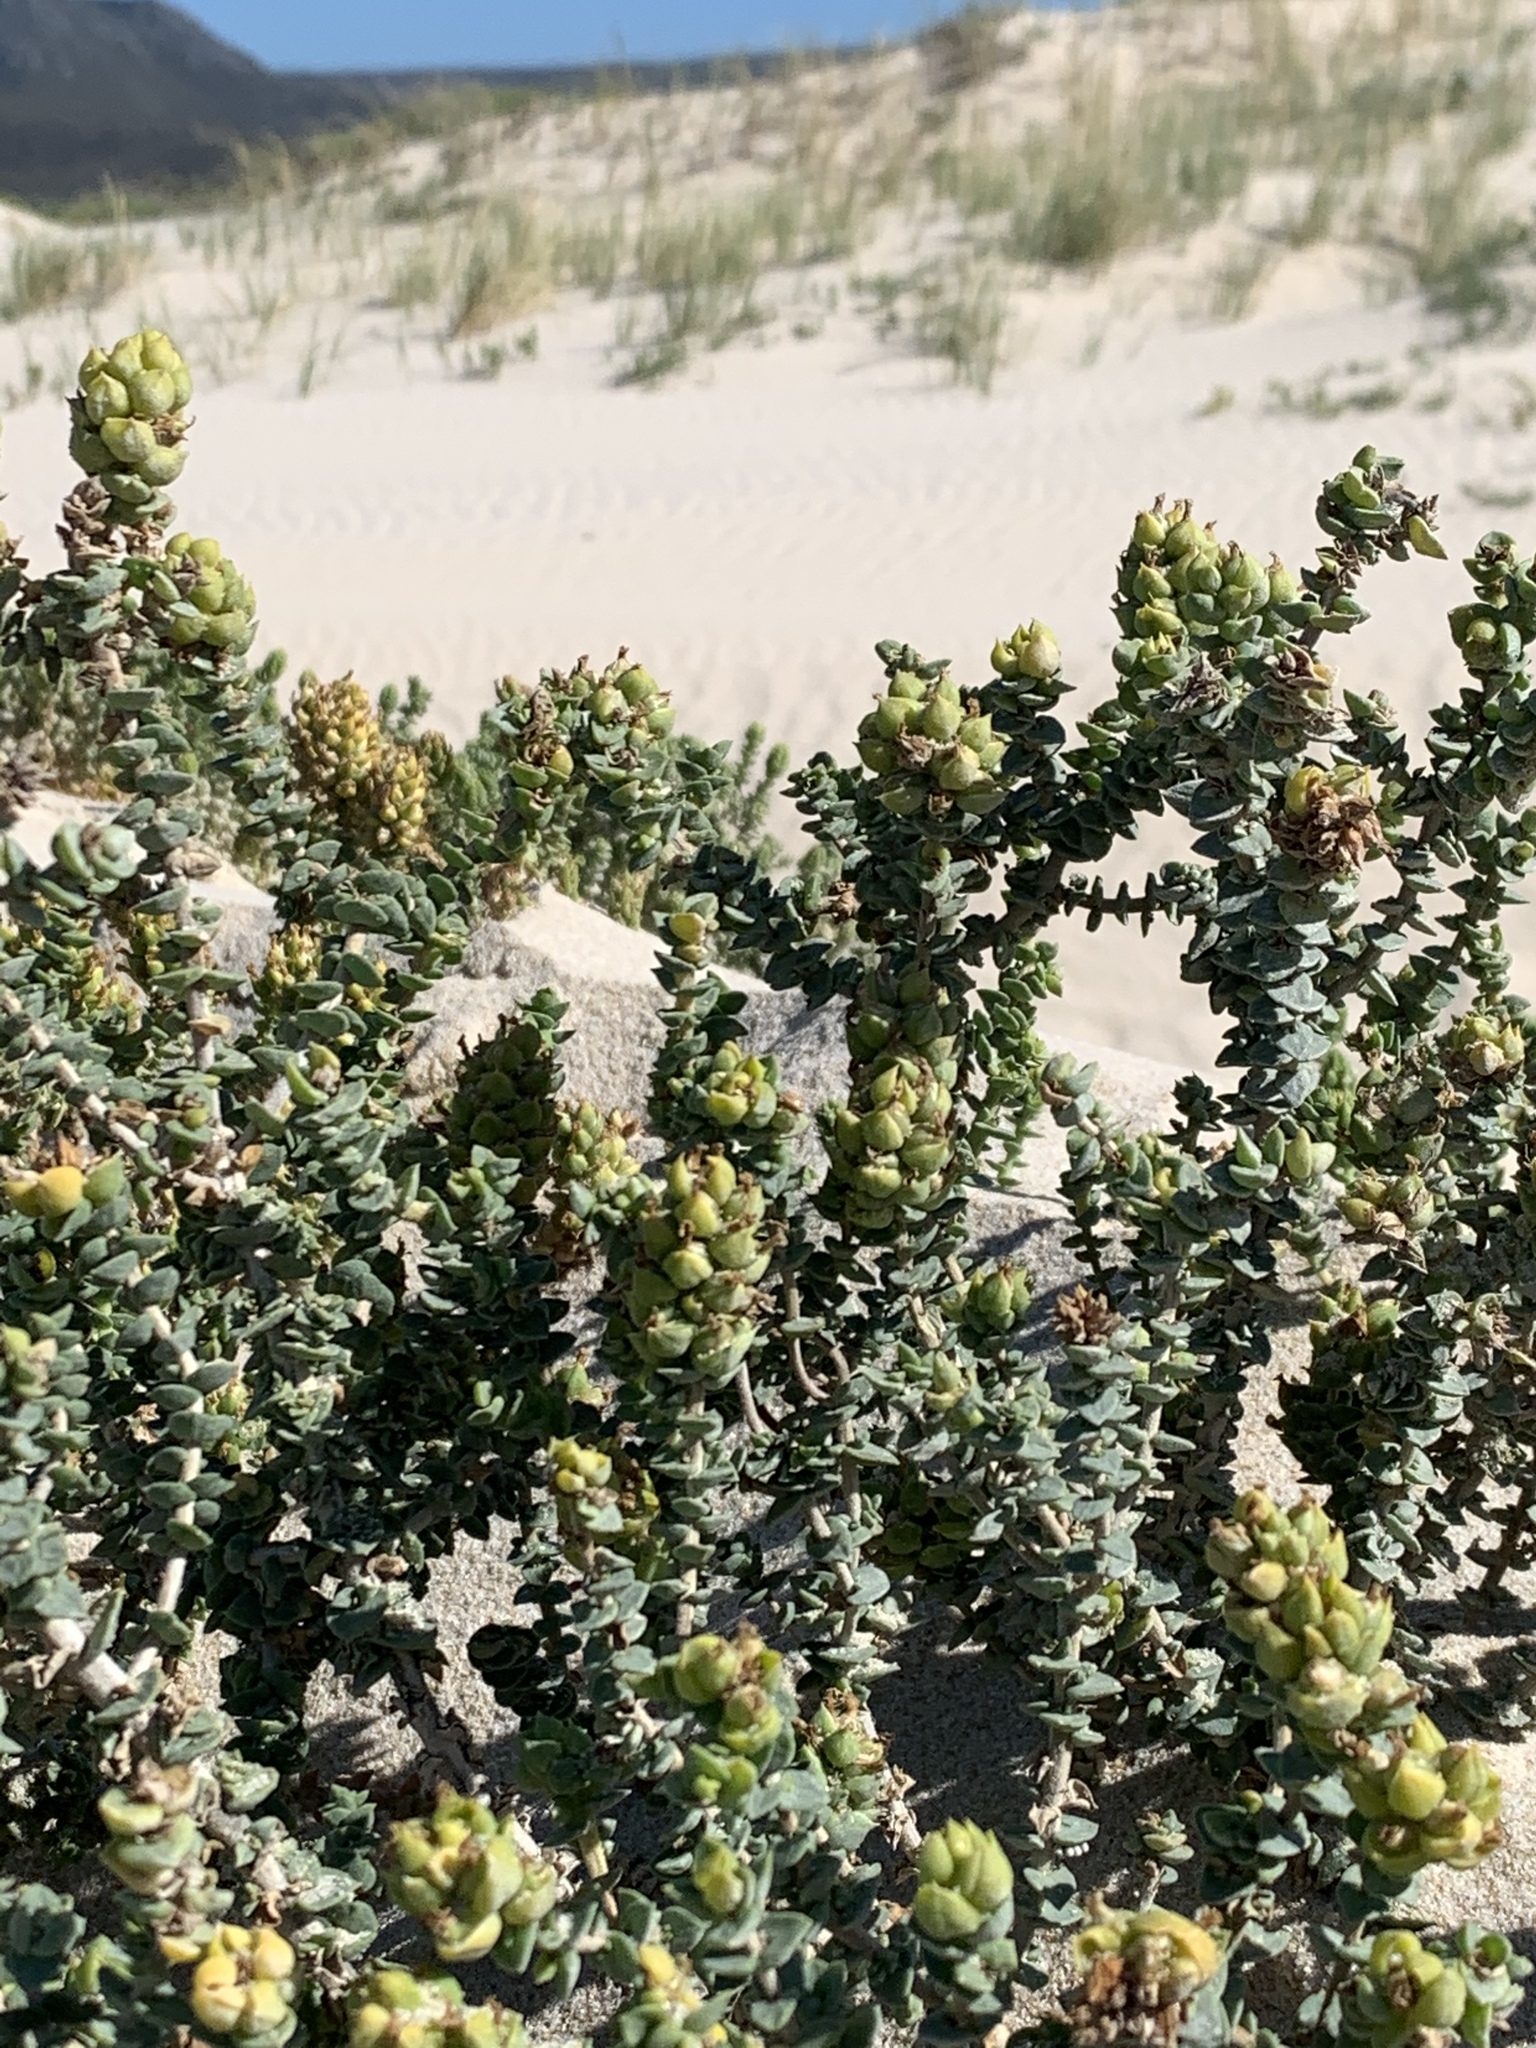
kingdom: Plantae
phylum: Tracheophyta
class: Magnoliopsida
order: Lamiales
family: Scrophulariaceae
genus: Hebenstretia
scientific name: Hebenstretia cordata
